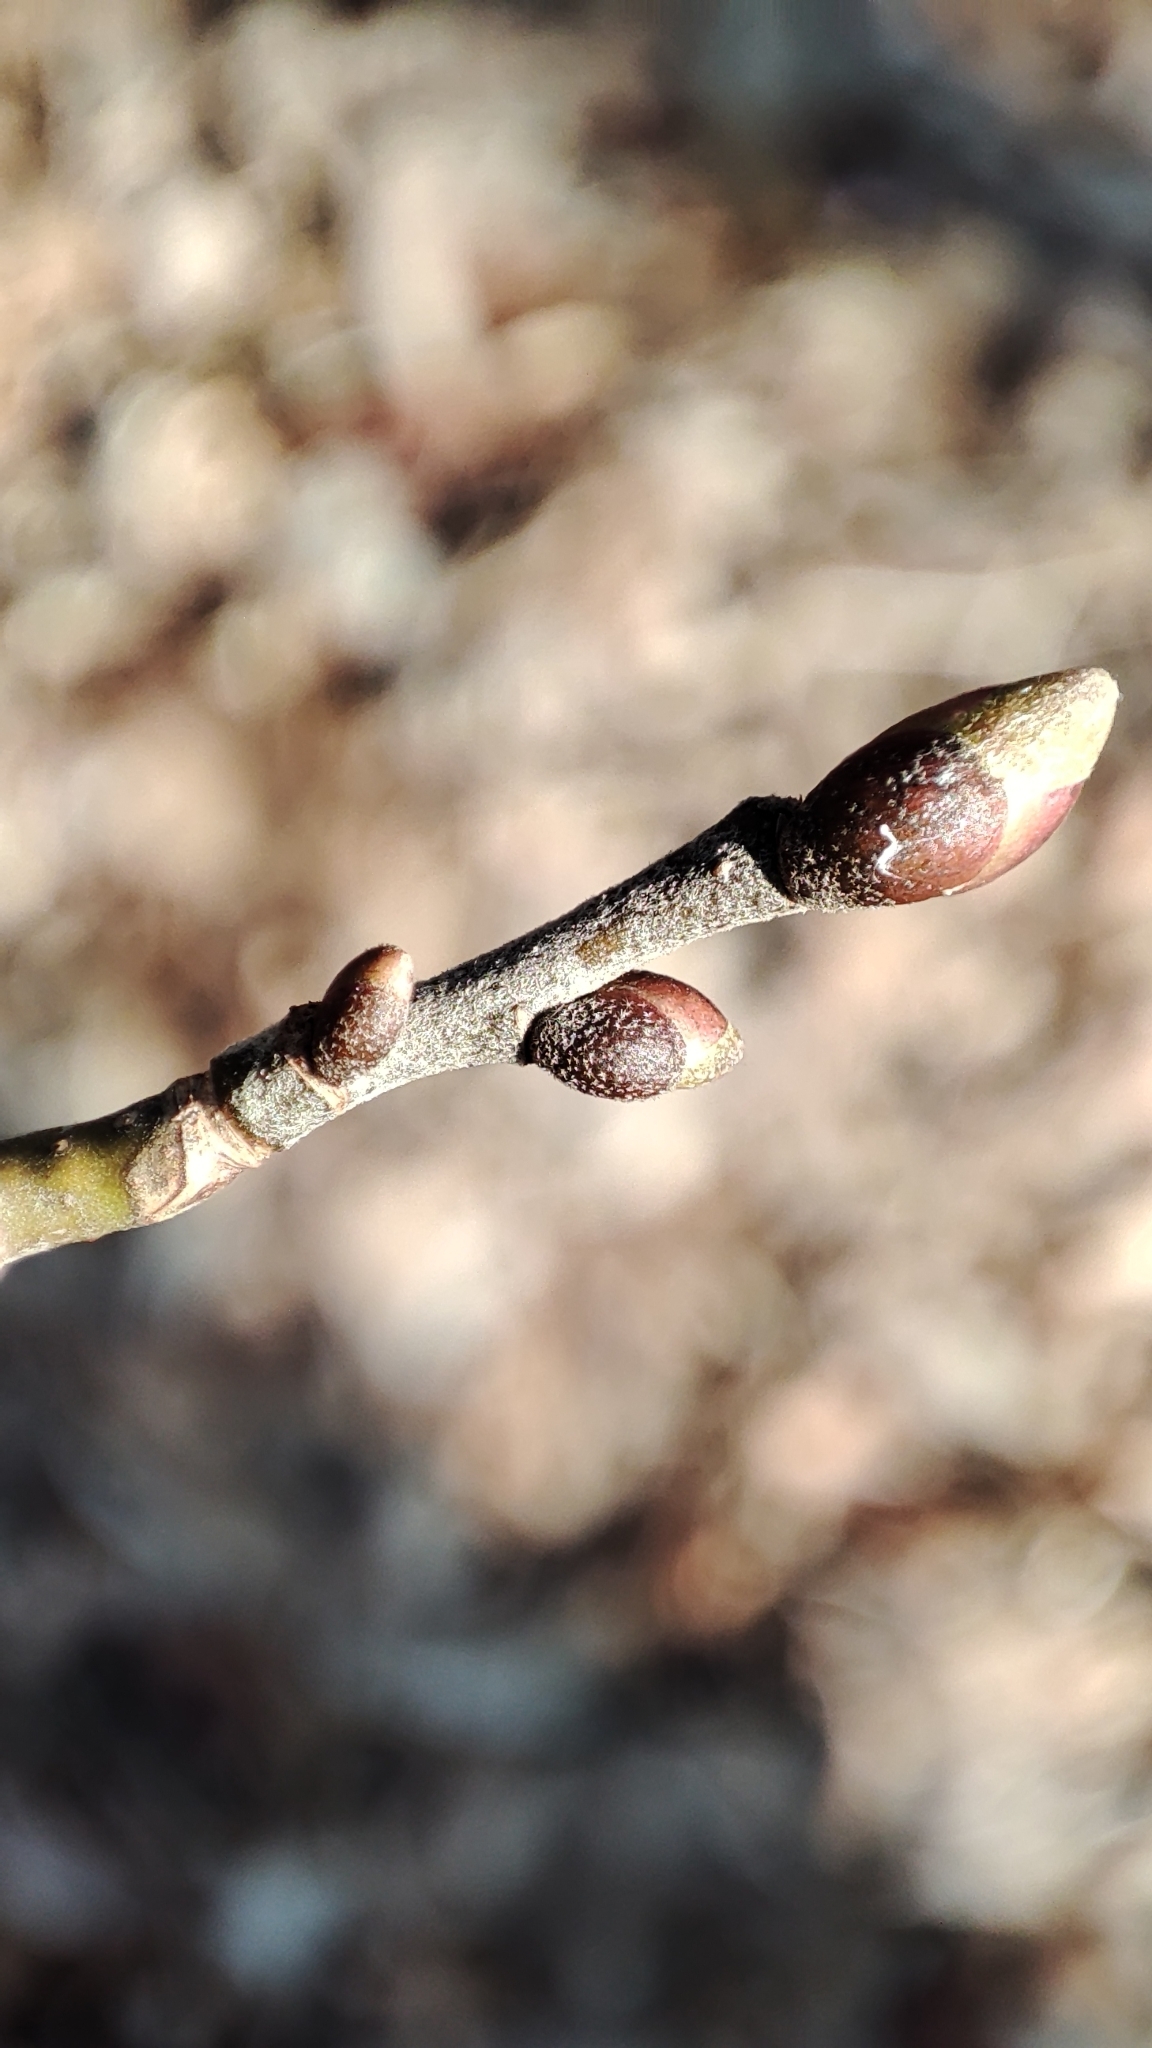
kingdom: Plantae
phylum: Tracheophyta
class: Magnoliopsida
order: Malvales
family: Malvaceae
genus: Tilia
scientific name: Tilia cordata
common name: Small-leaved lime
